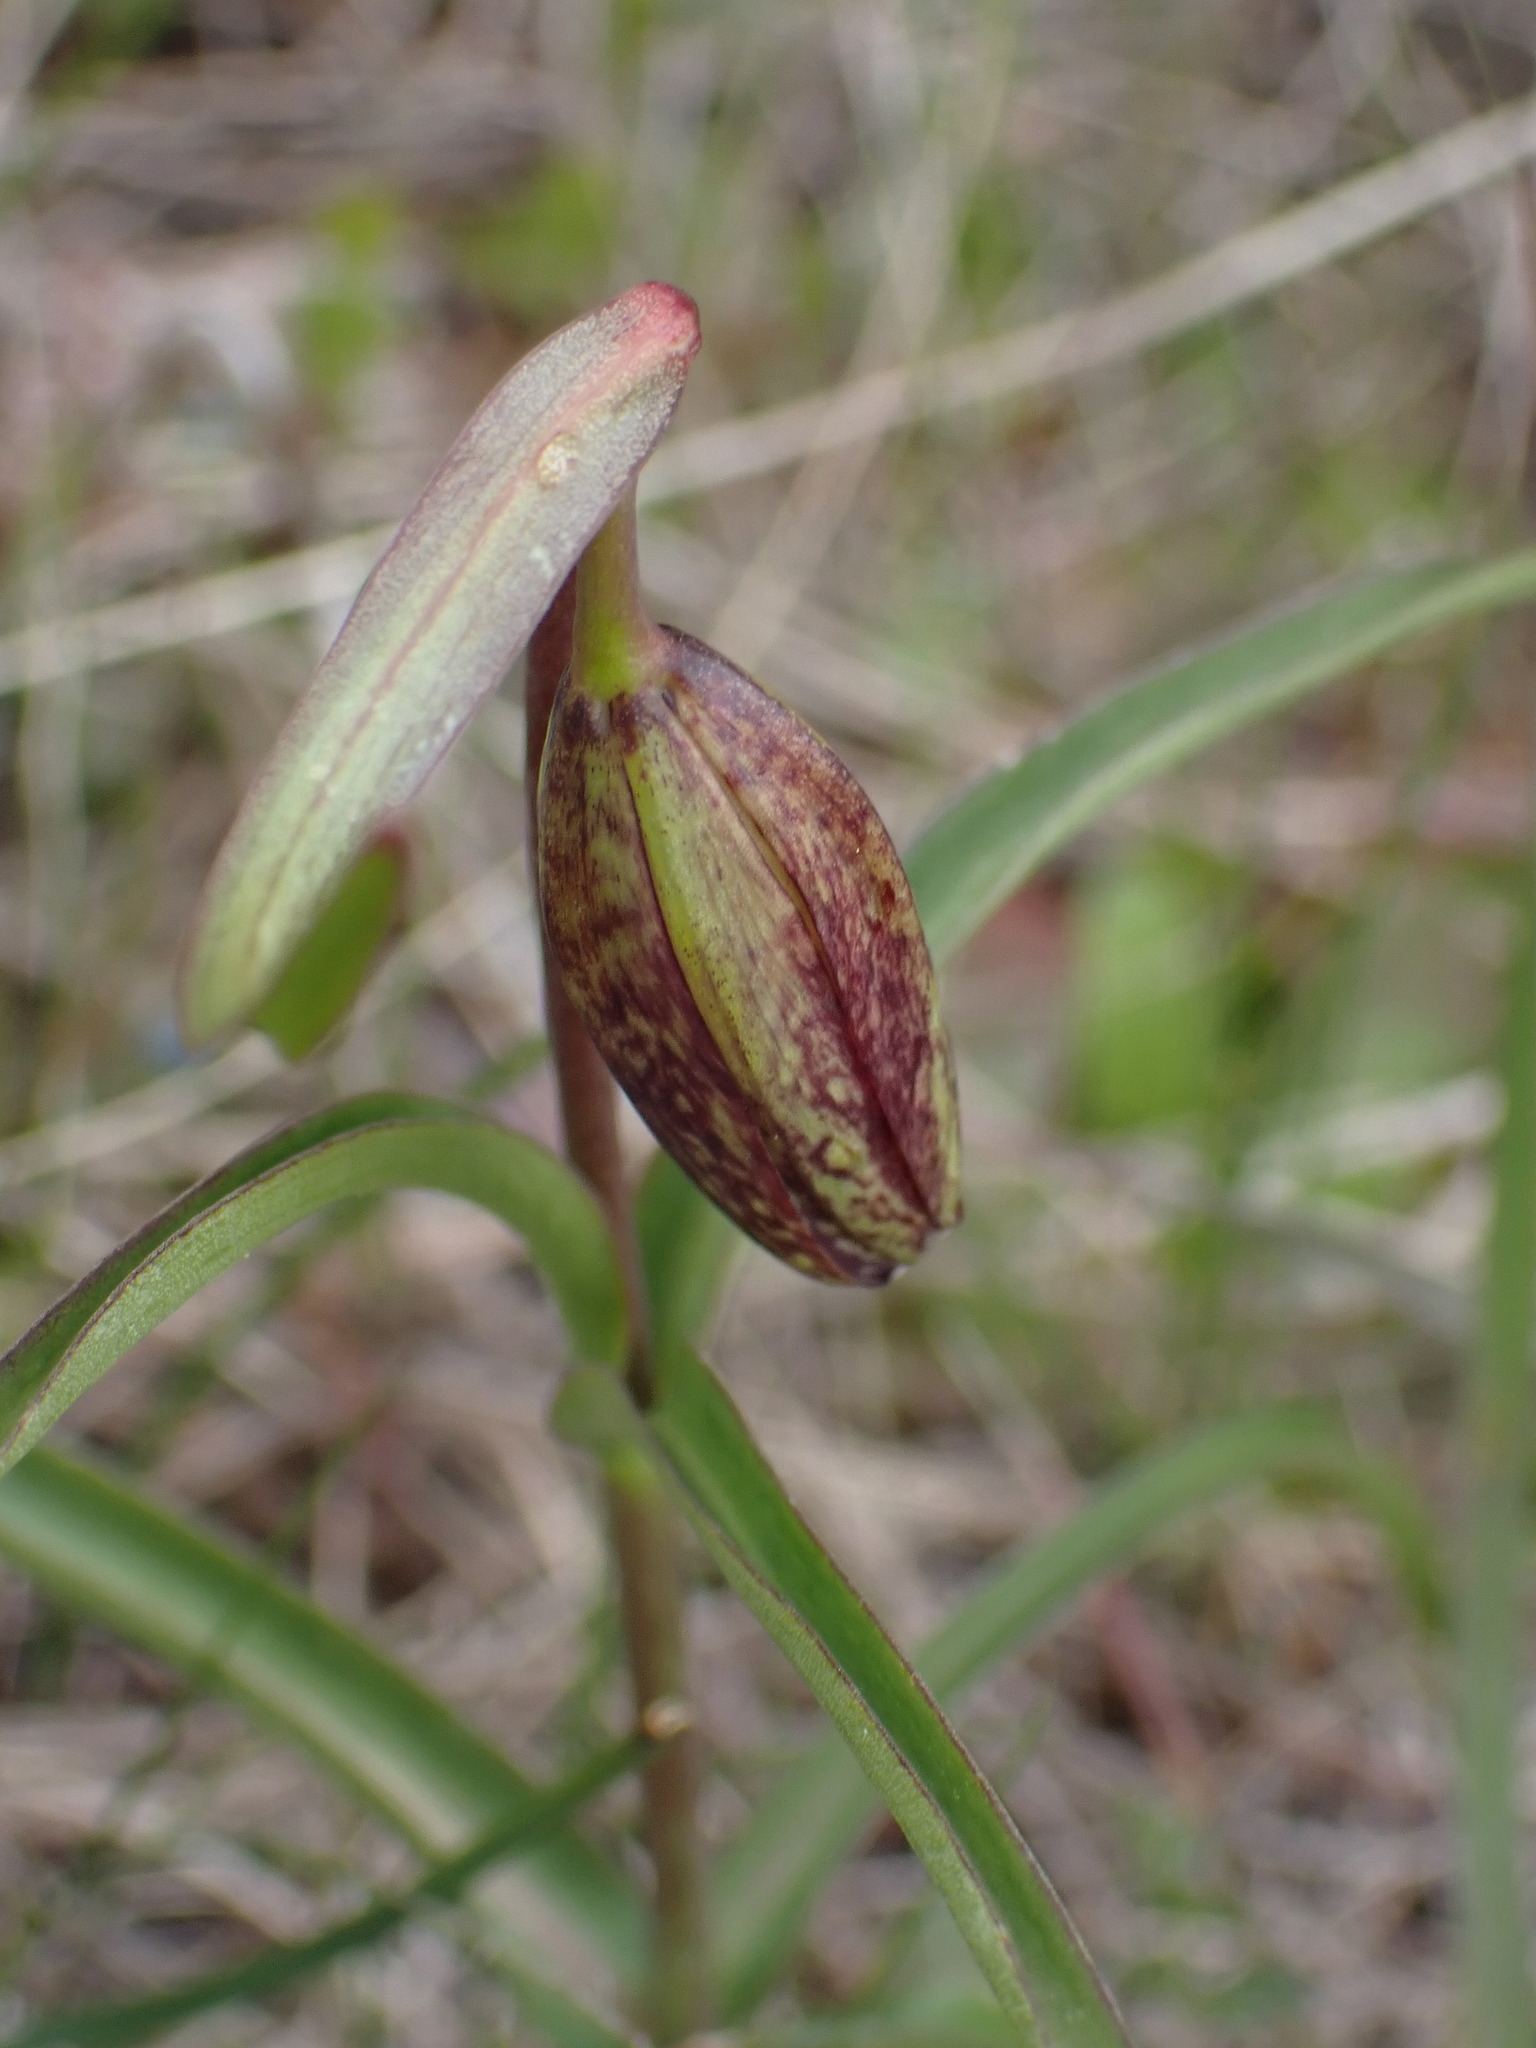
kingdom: Plantae
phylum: Tracheophyta
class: Liliopsida
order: Liliales
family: Liliaceae
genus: Fritillaria
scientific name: Fritillaria affinis
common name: Ojai fritillary
